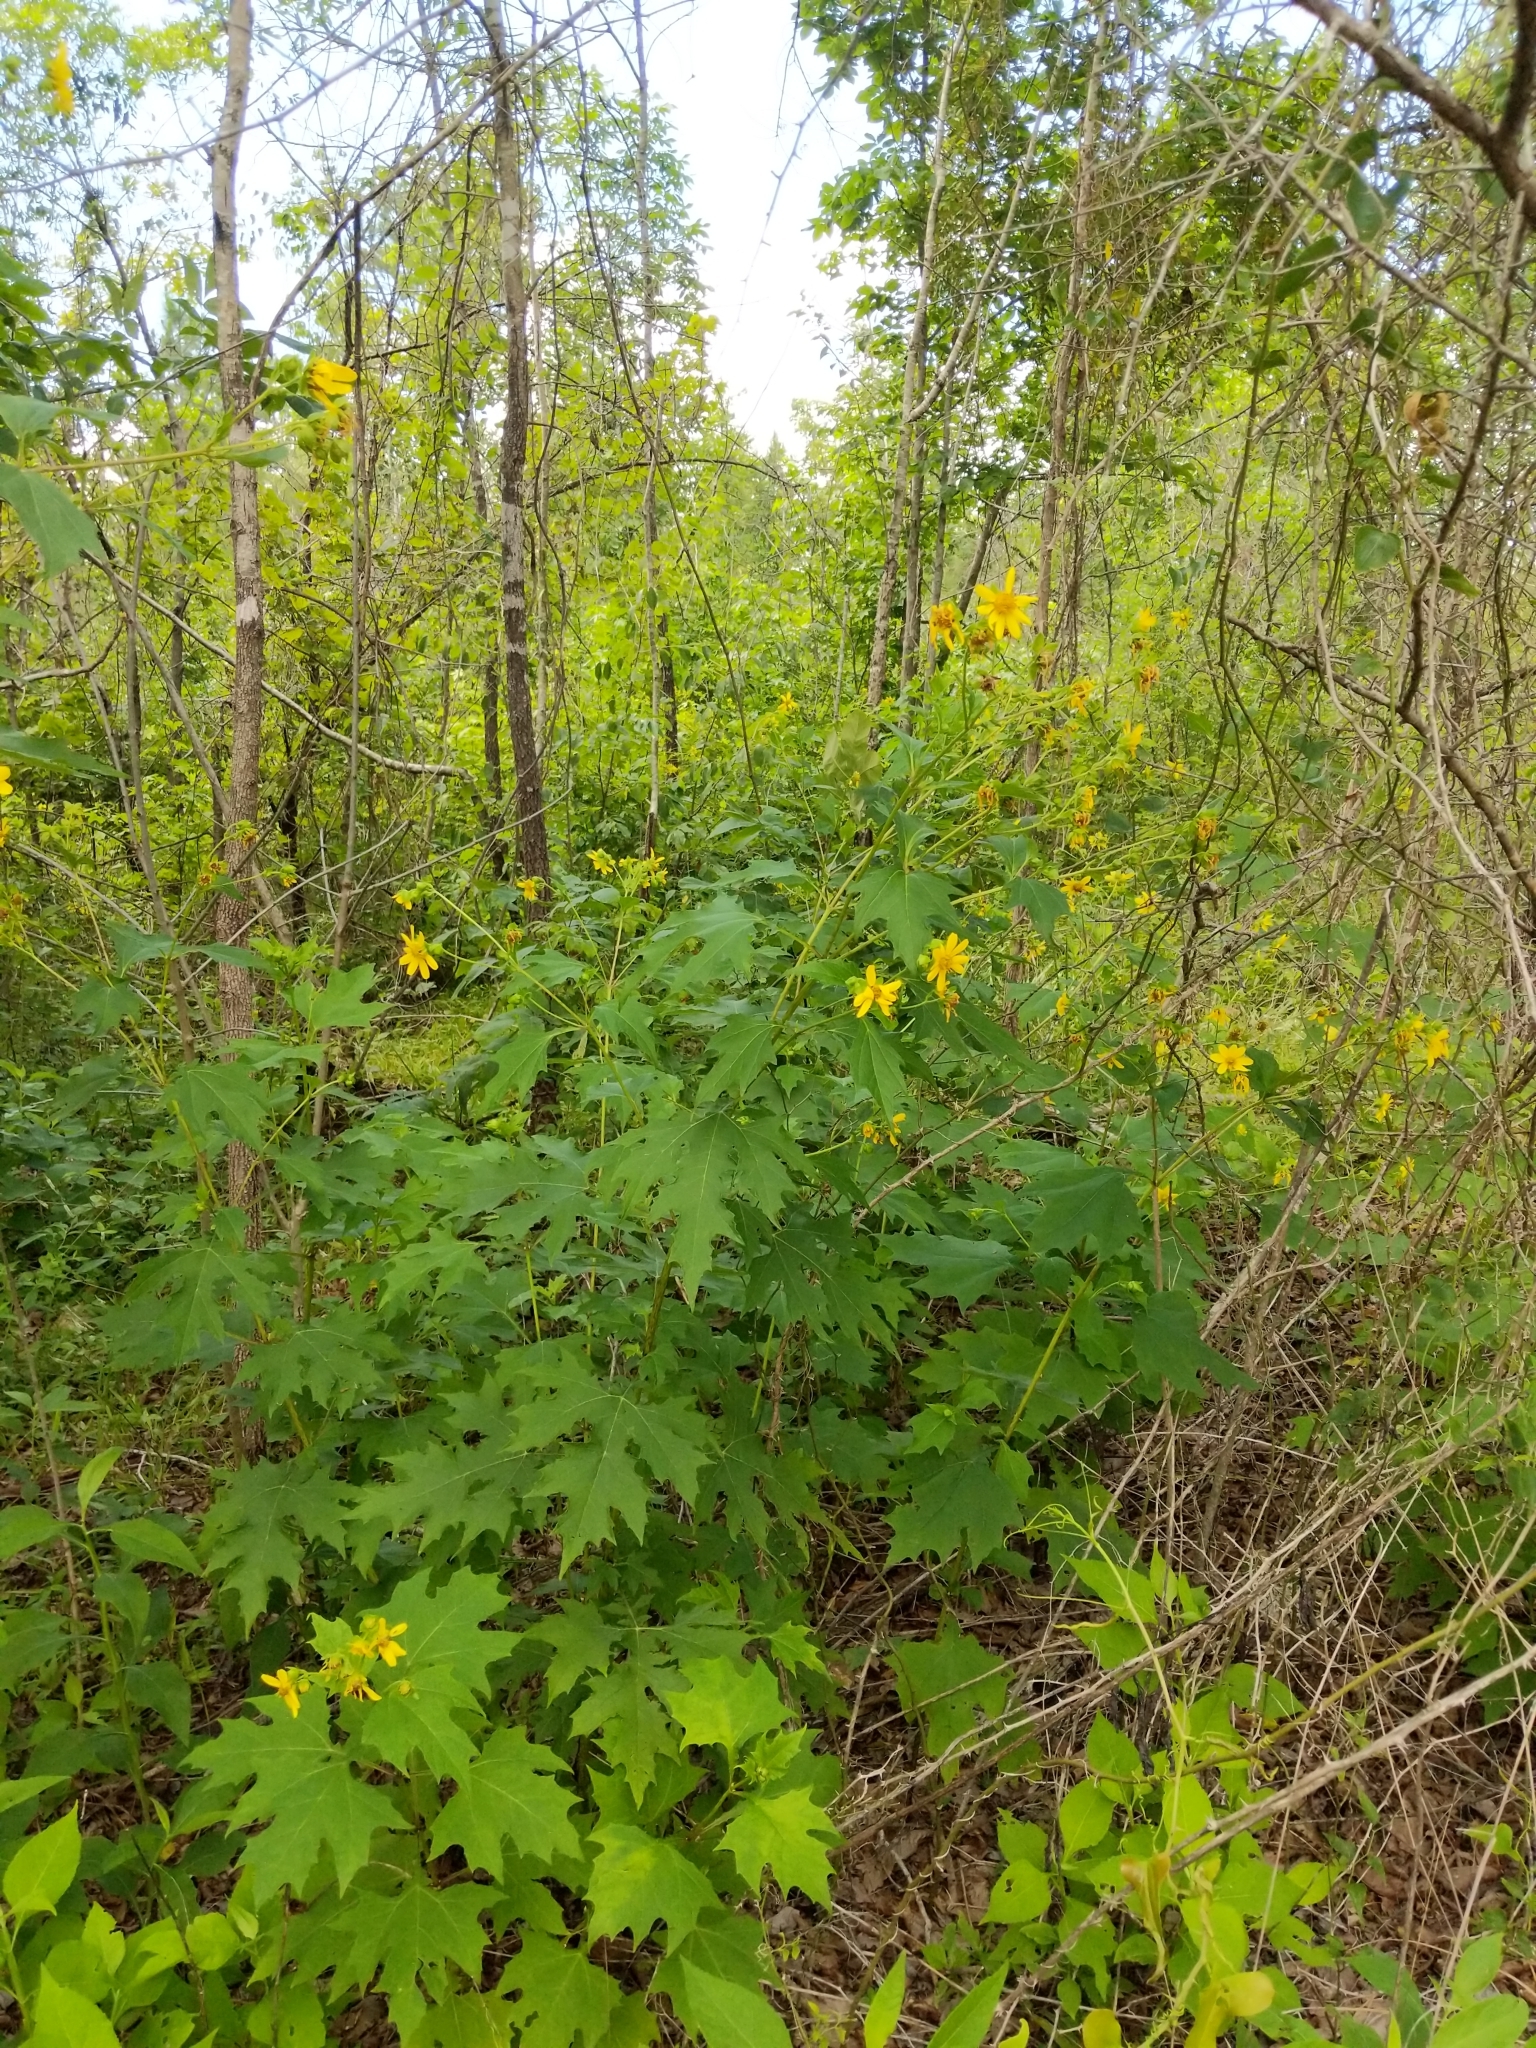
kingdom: Plantae
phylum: Tracheophyta
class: Magnoliopsida
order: Asterales
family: Asteraceae
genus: Smallanthus
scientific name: Smallanthus uvedalia
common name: Bear's-foot
